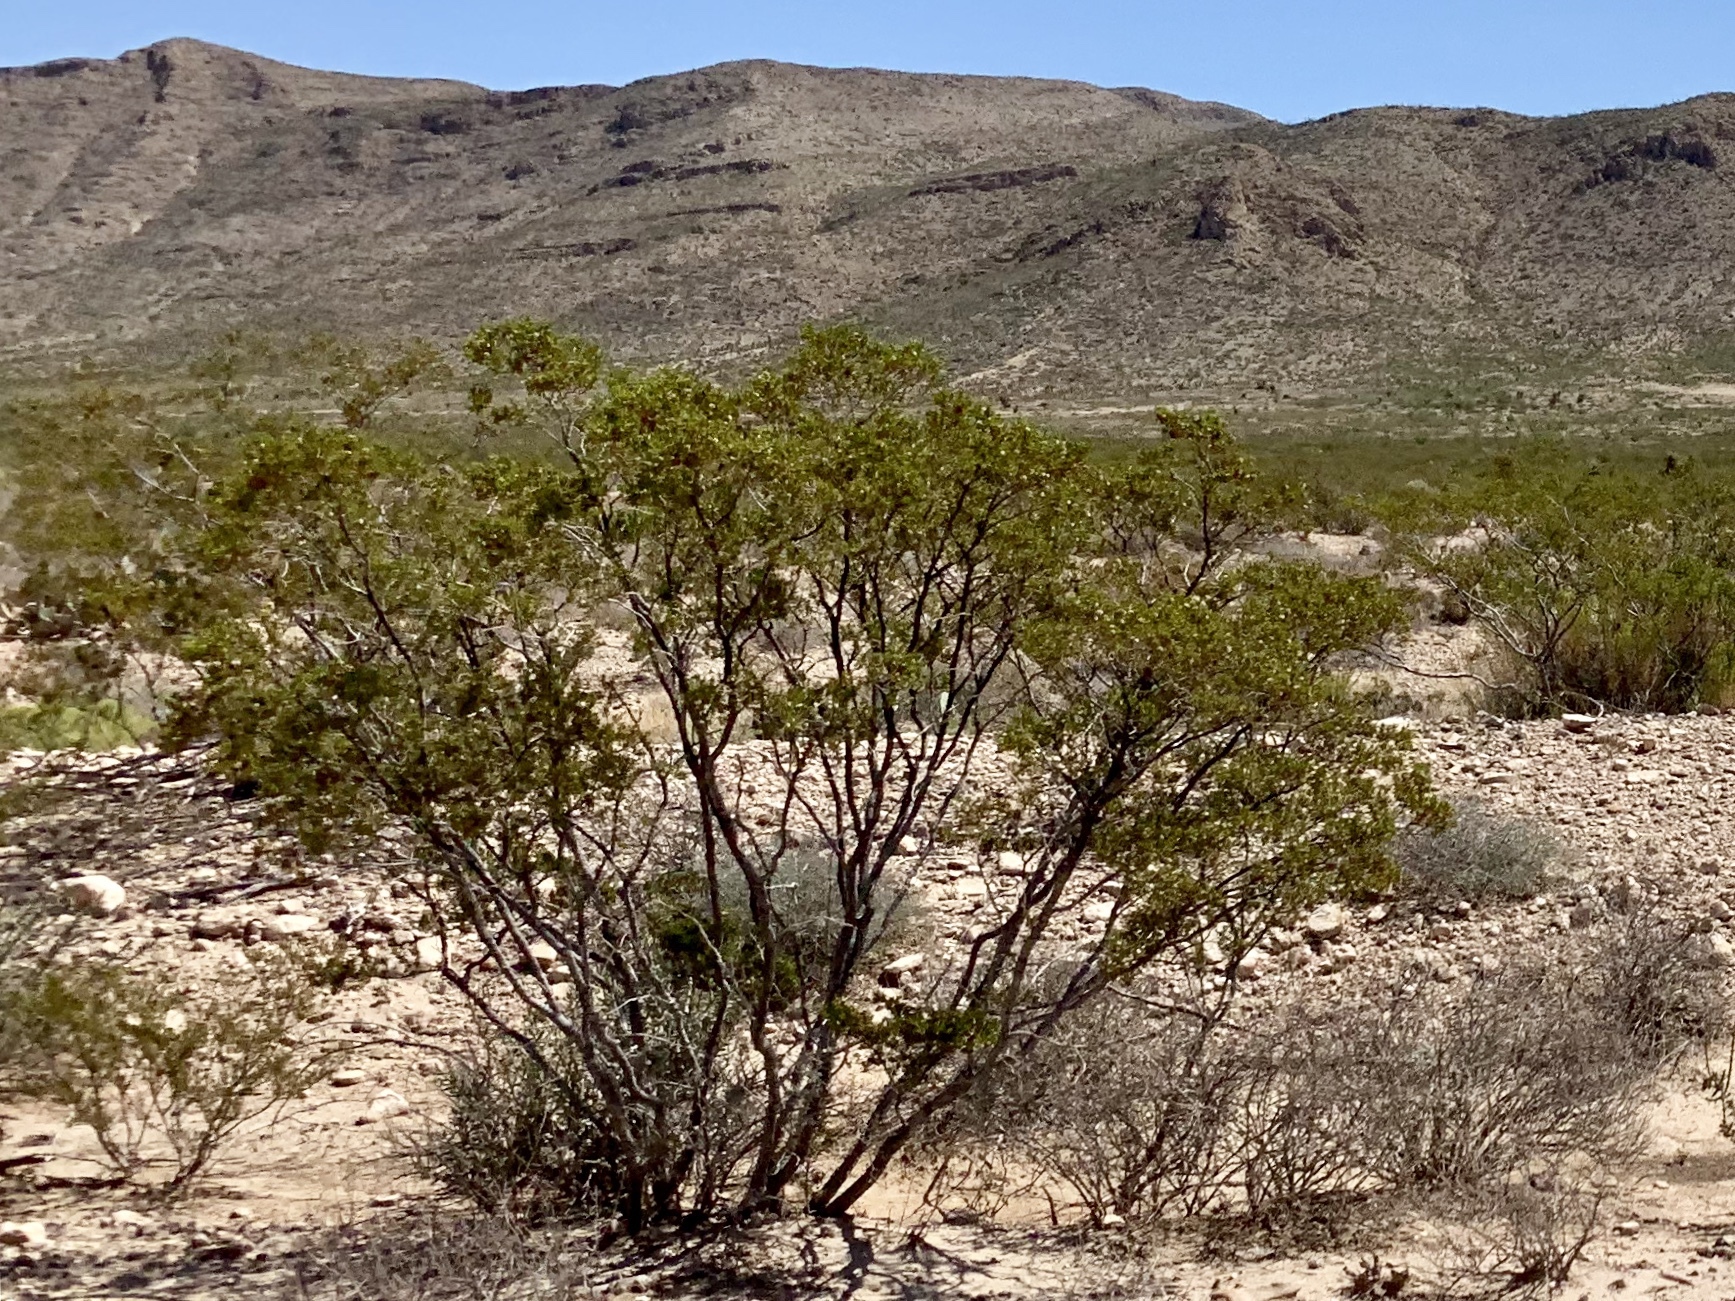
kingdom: Plantae
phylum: Tracheophyta
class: Magnoliopsida
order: Zygophyllales
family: Zygophyllaceae
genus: Larrea
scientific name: Larrea tridentata
